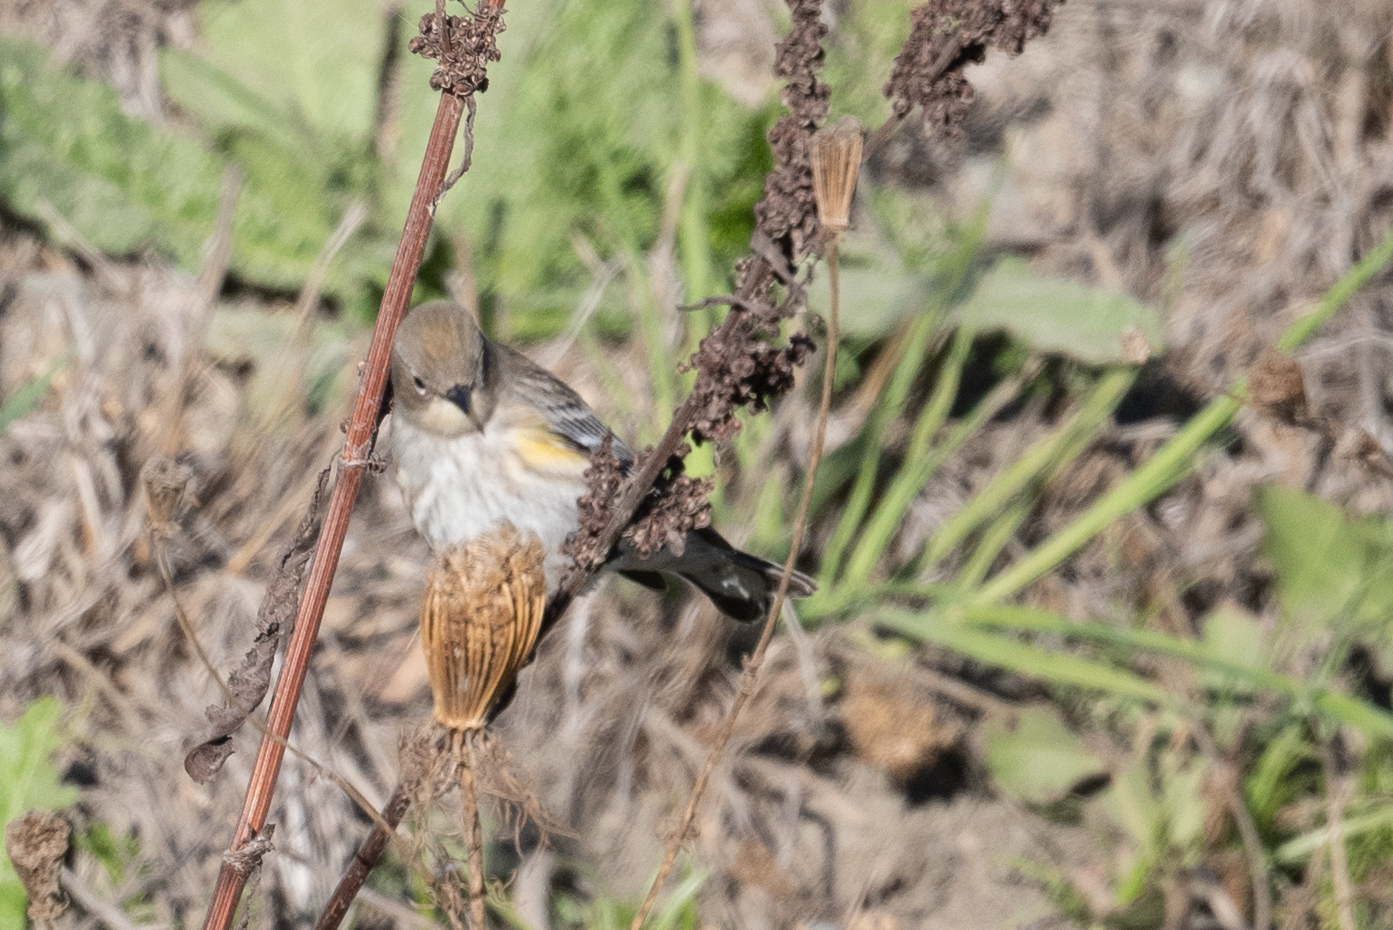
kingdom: Animalia
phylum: Chordata
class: Aves
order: Passeriformes
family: Parulidae
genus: Setophaga
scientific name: Setophaga coronata
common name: Myrtle warbler
